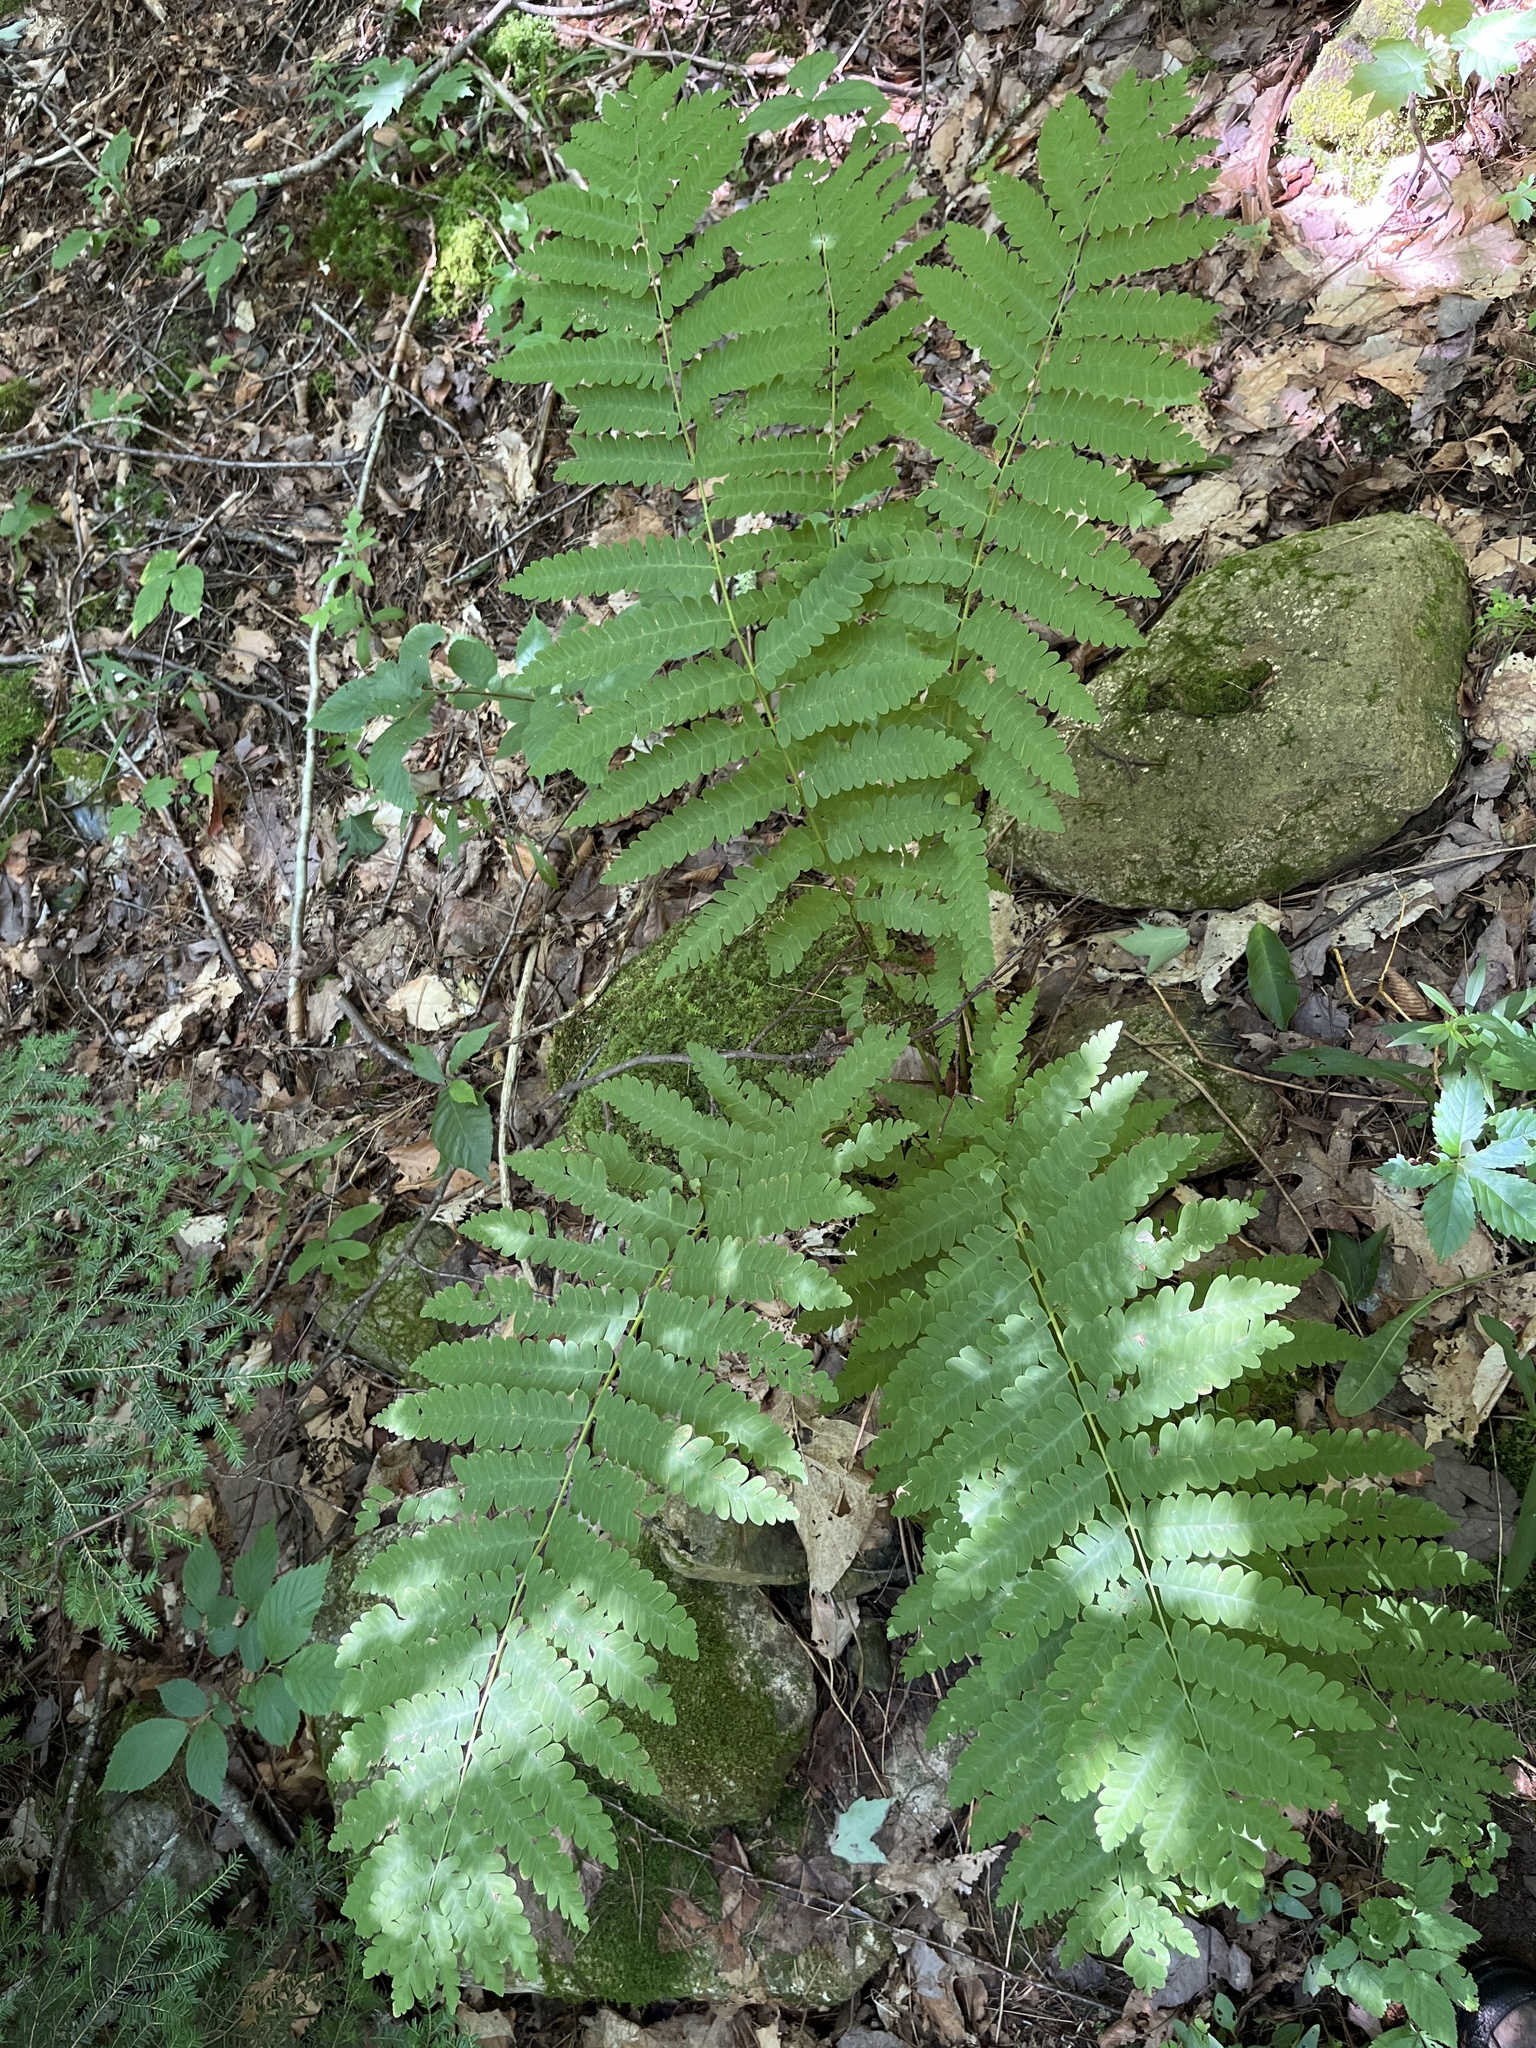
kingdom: Plantae
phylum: Tracheophyta
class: Polypodiopsida
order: Osmundales
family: Osmundaceae
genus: Claytosmunda
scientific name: Claytosmunda claytoniana
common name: Clayton's fern
